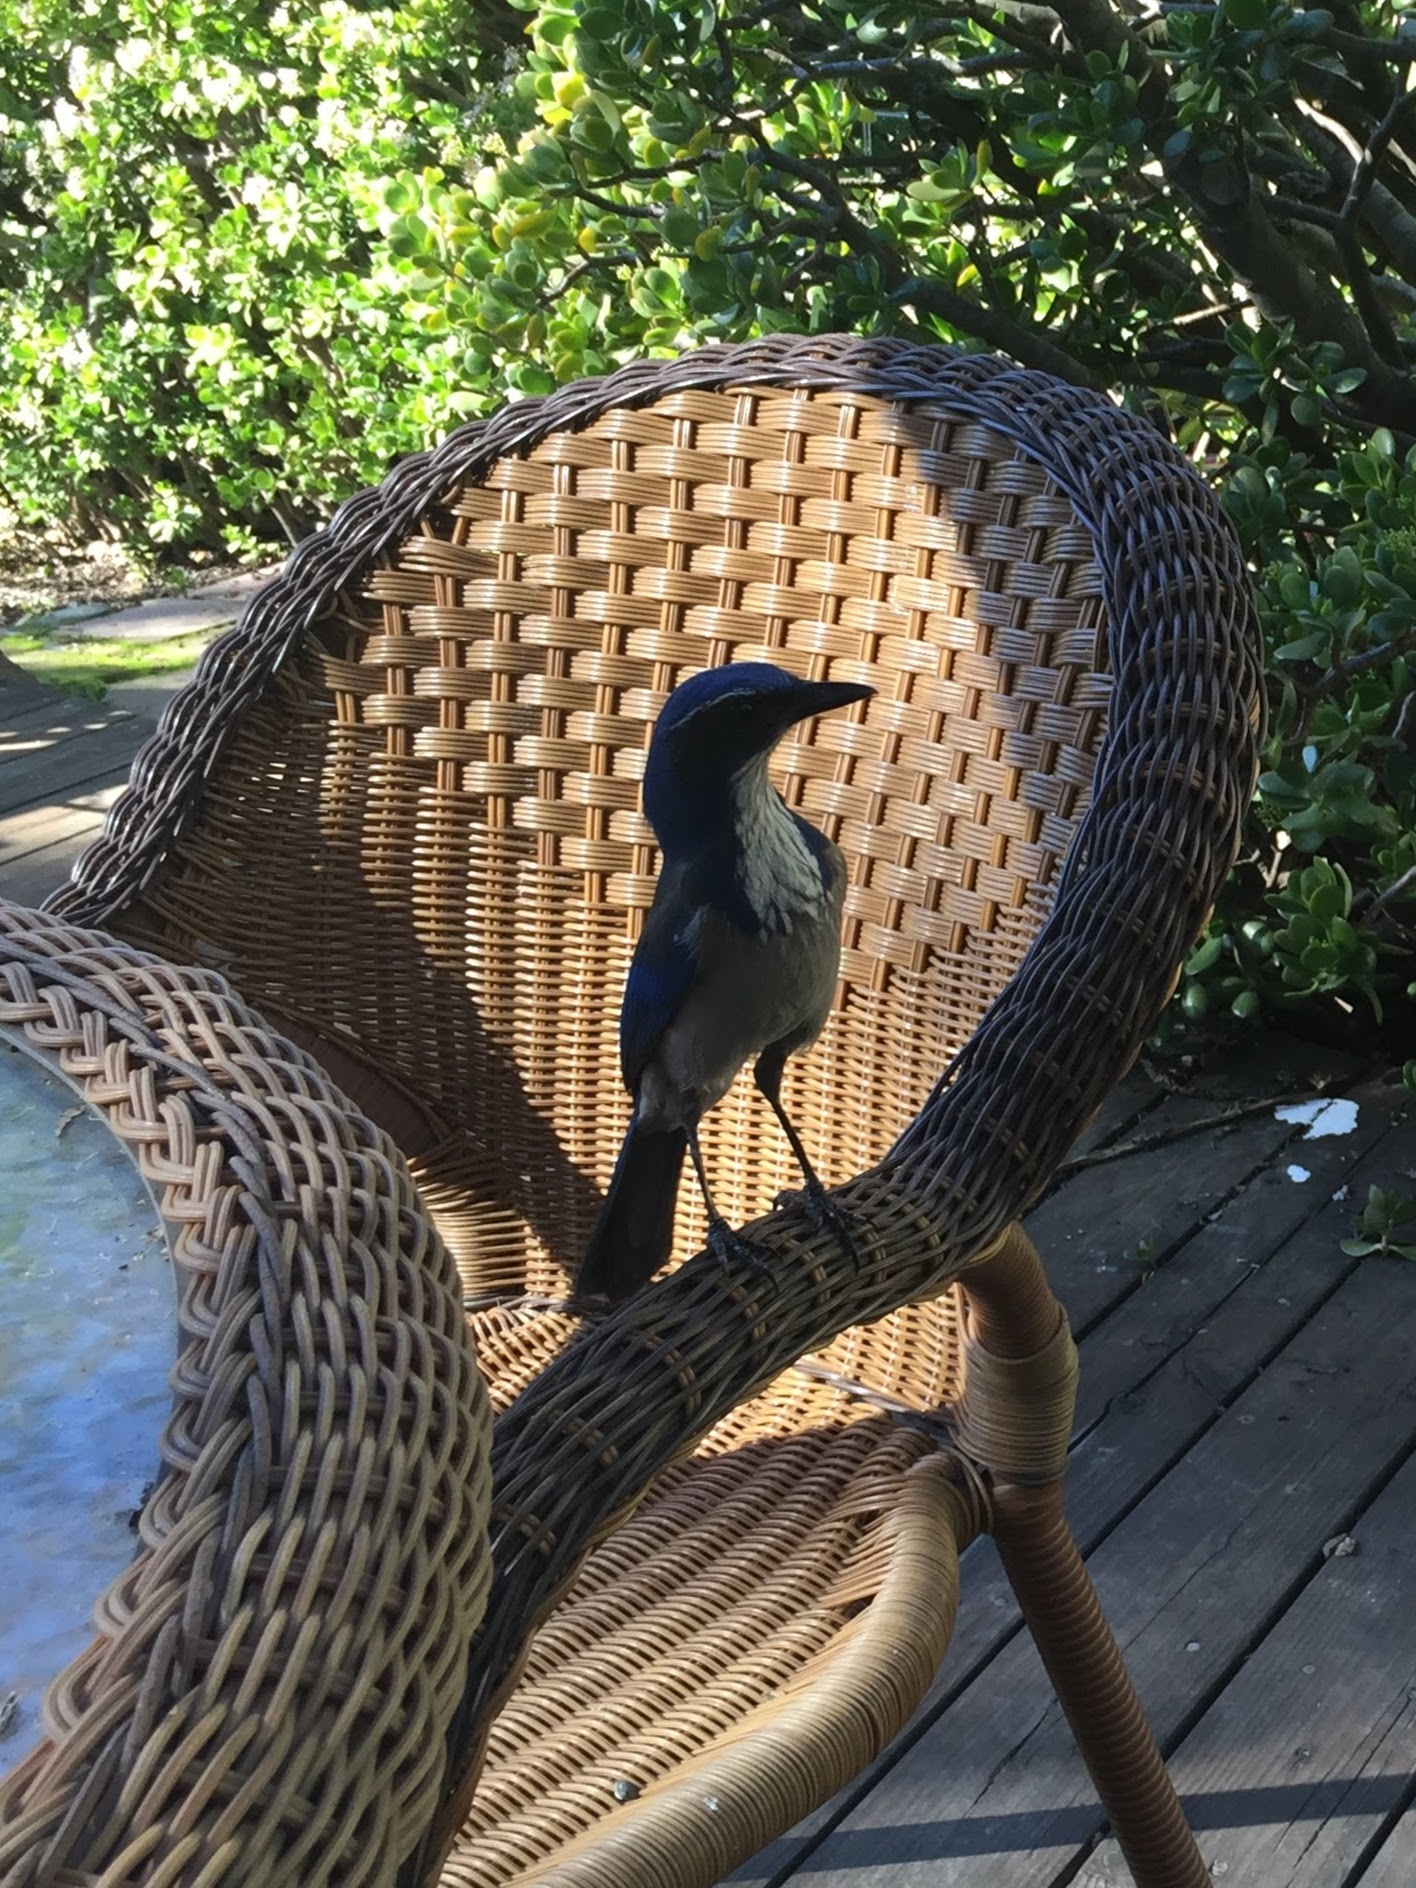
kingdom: Animalia
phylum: Chordata
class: Aves
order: Passeriformes
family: Corvidae
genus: Aphelocoma
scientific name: Aphelocoma californica
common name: California scrub-jay
